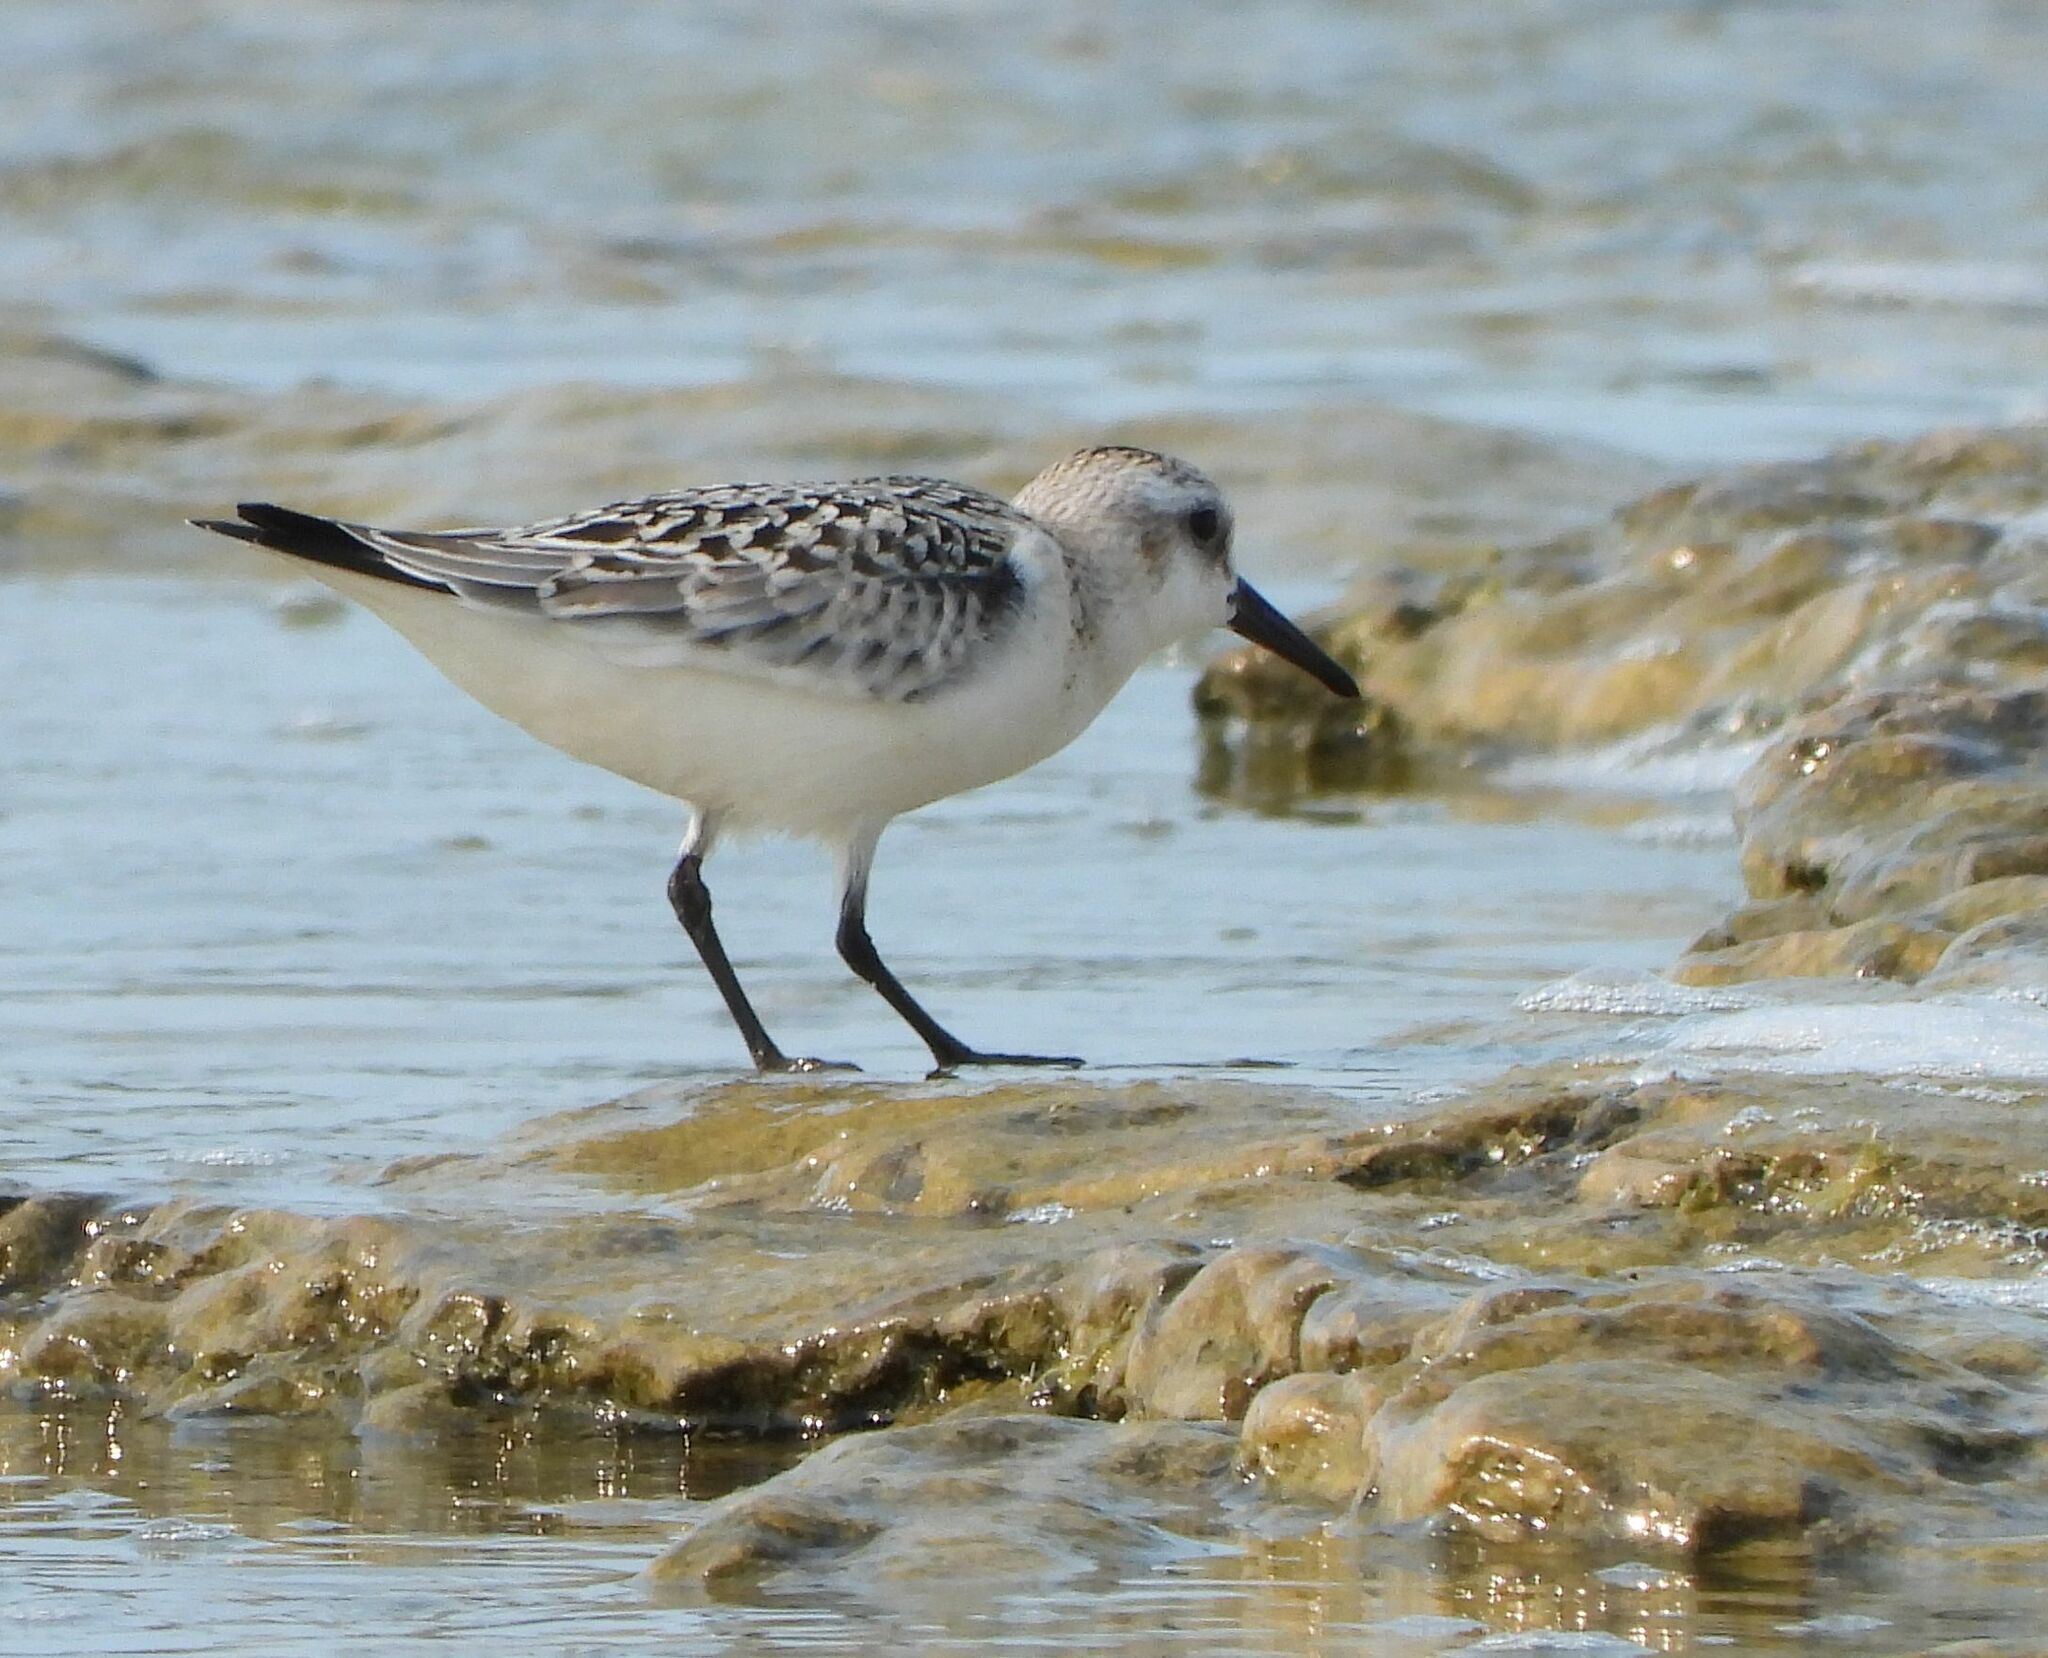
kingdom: Animalia
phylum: Chordata
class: Aves
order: Charadriiformes
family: Scolopacidae
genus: Calidris
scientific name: Calidris alba
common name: Sanderling
